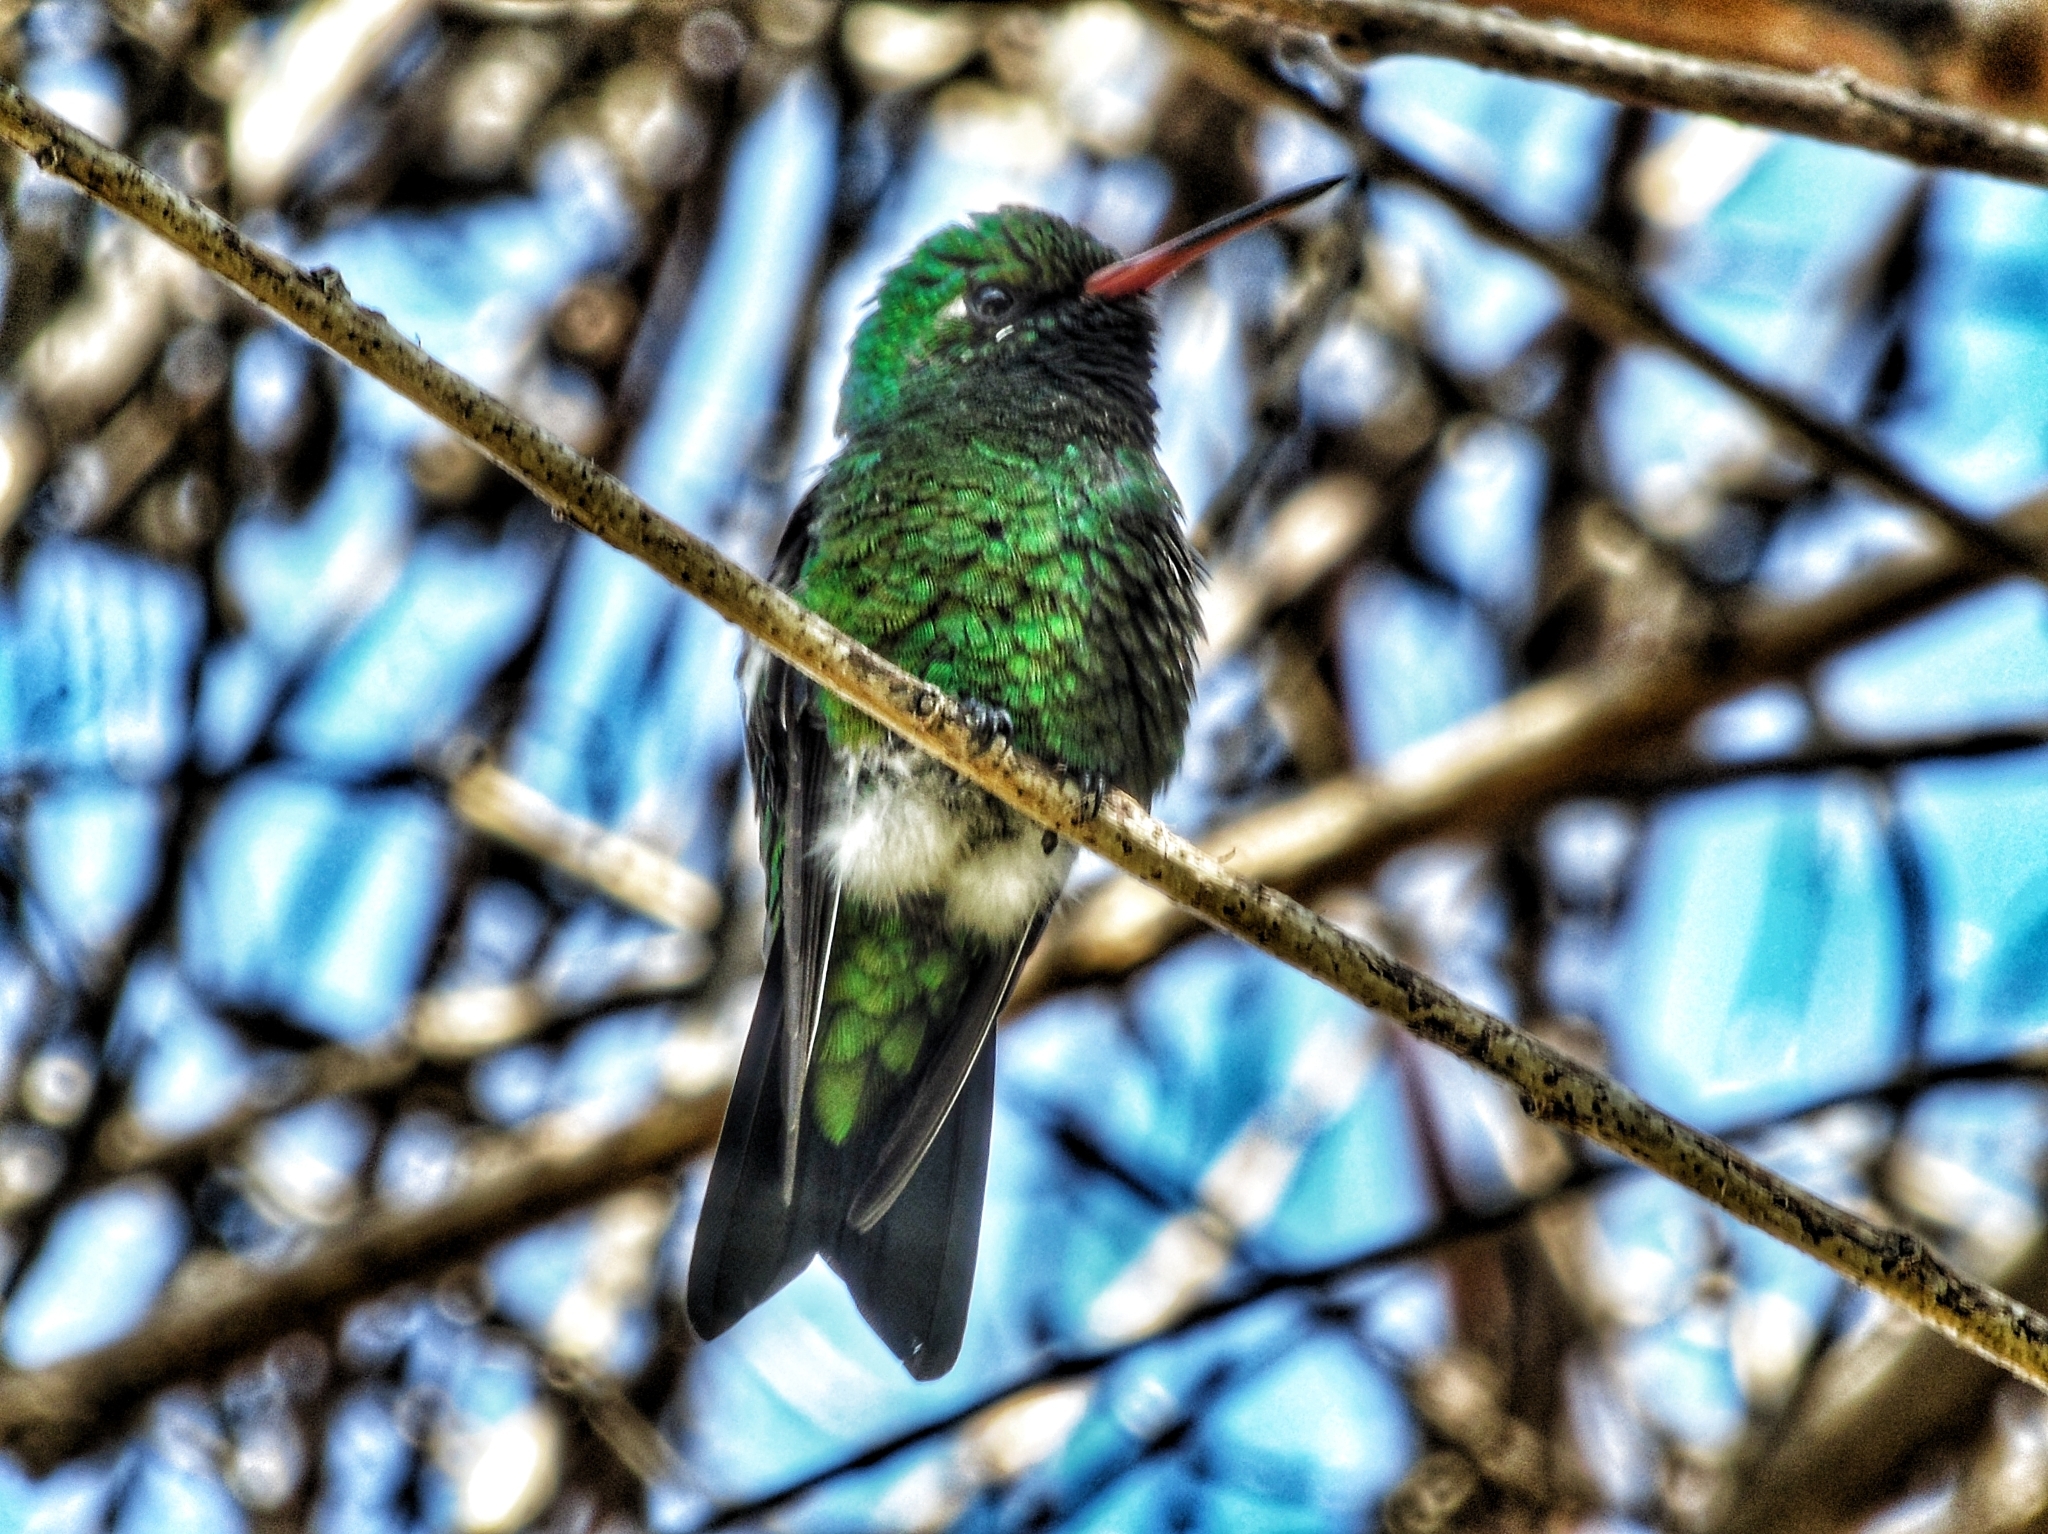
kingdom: Animalia
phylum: Chordata
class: Aves
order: Apodiformes
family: Trochilidae
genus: Chlorostilbon
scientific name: Chlorostilbon lucidus
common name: Glittering-bellied emerald
